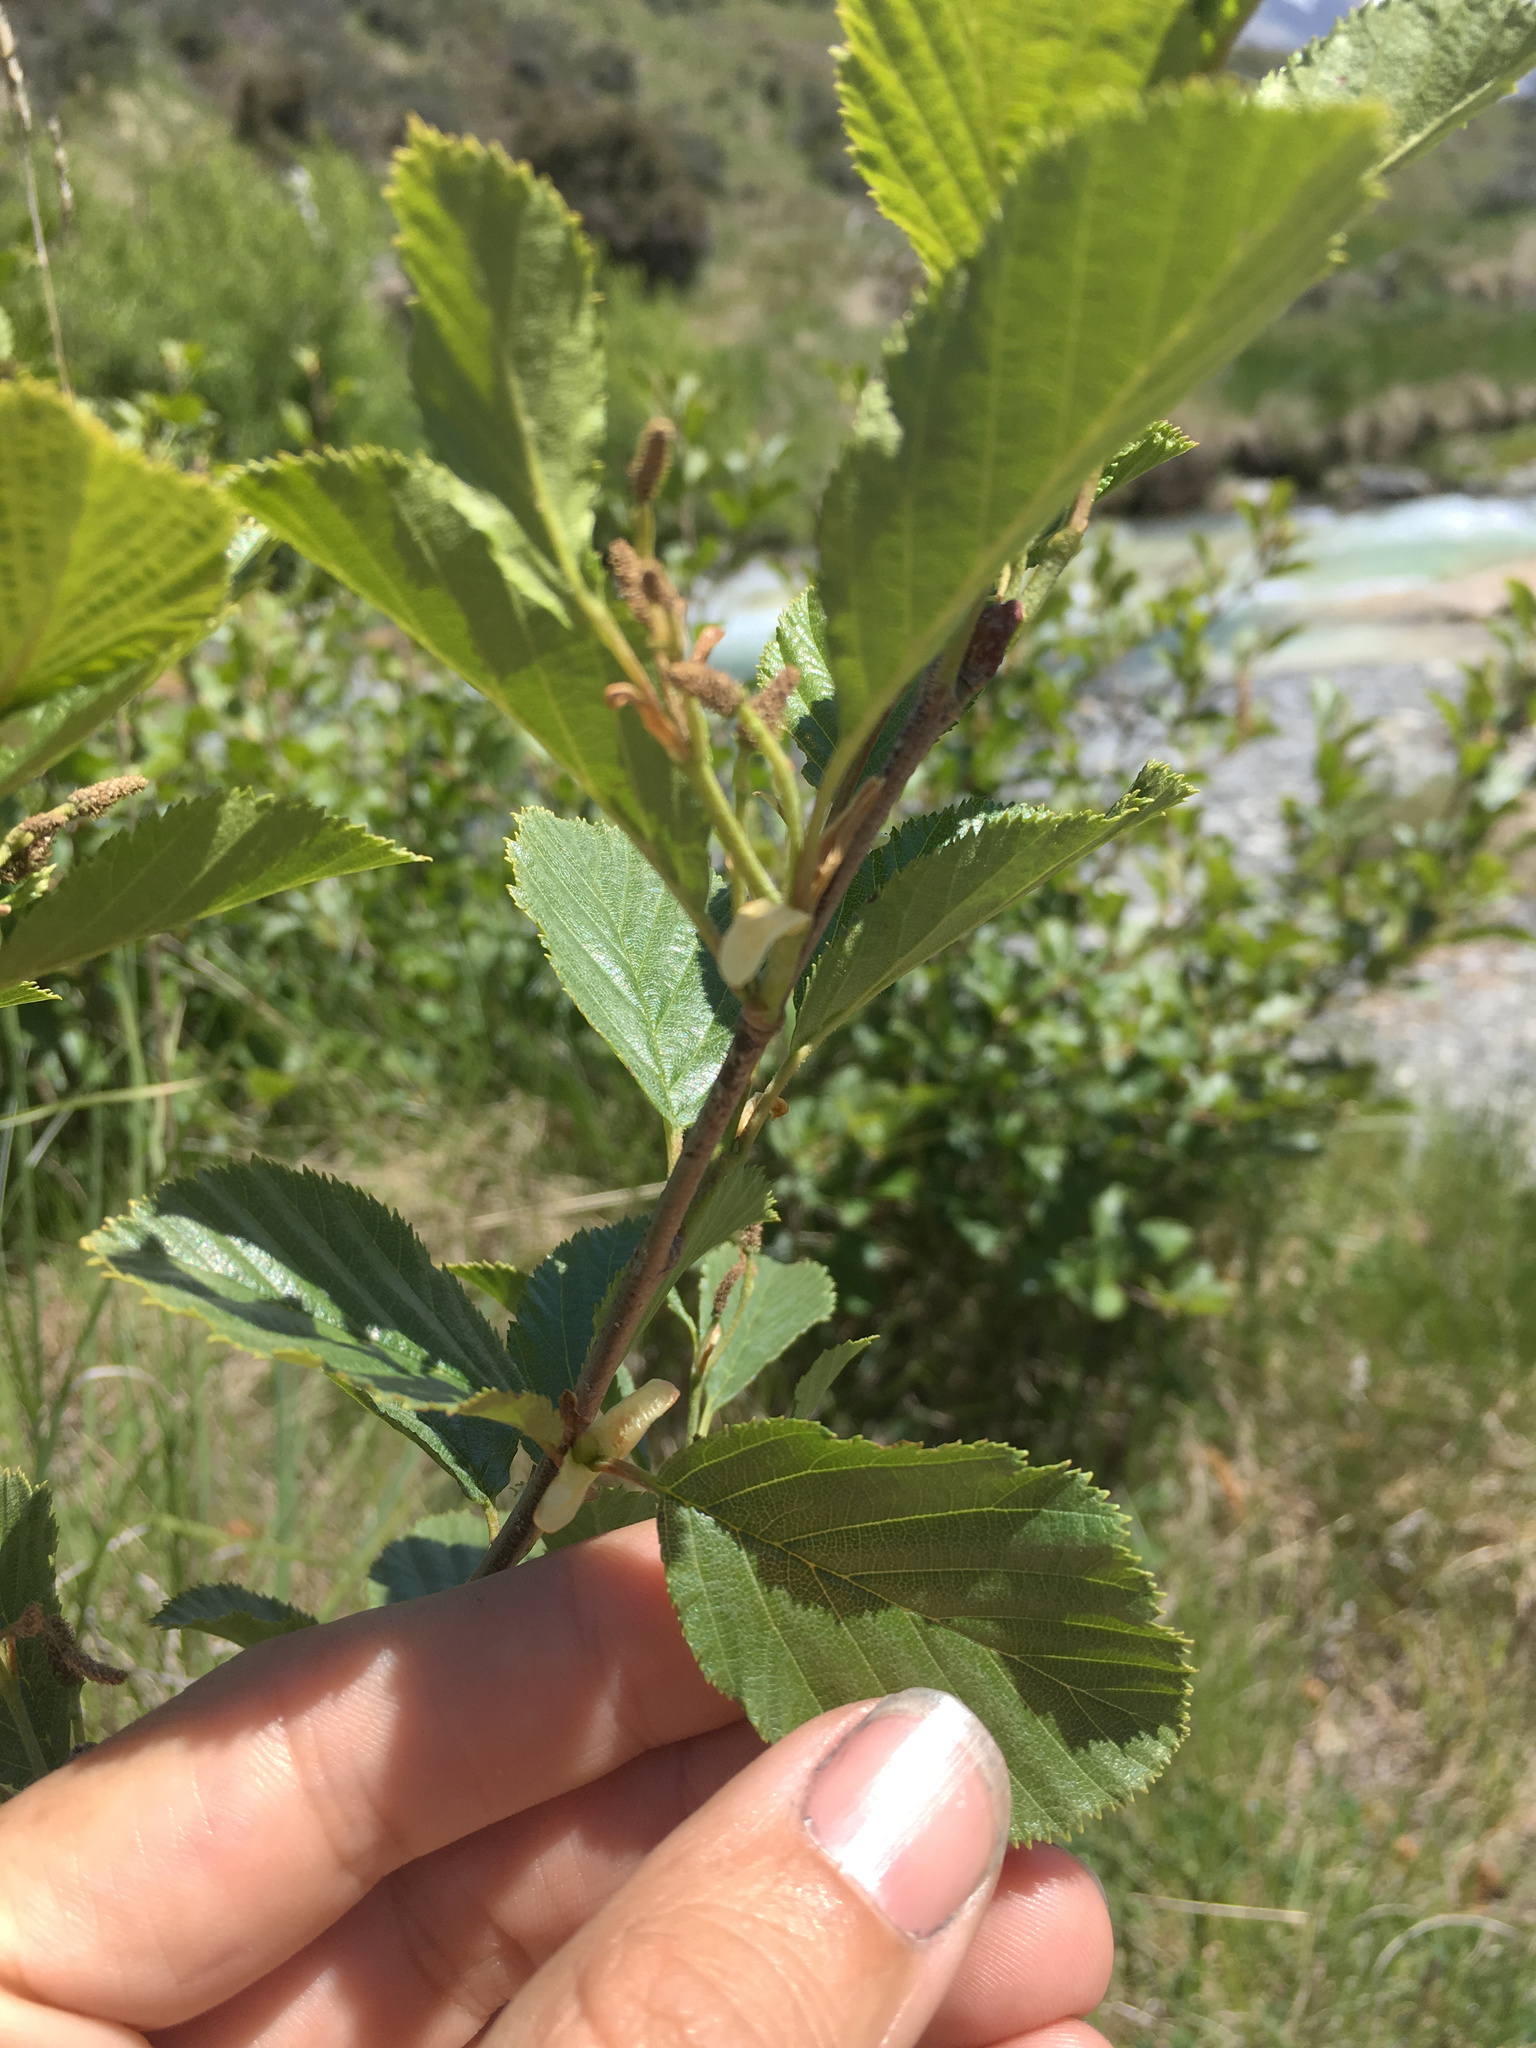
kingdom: Plantae
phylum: Tracheophyta
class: Magnoliopsida
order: Fagales
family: Betulaceae
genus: Alnus
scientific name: Alnus glutinosa
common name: Black alder
